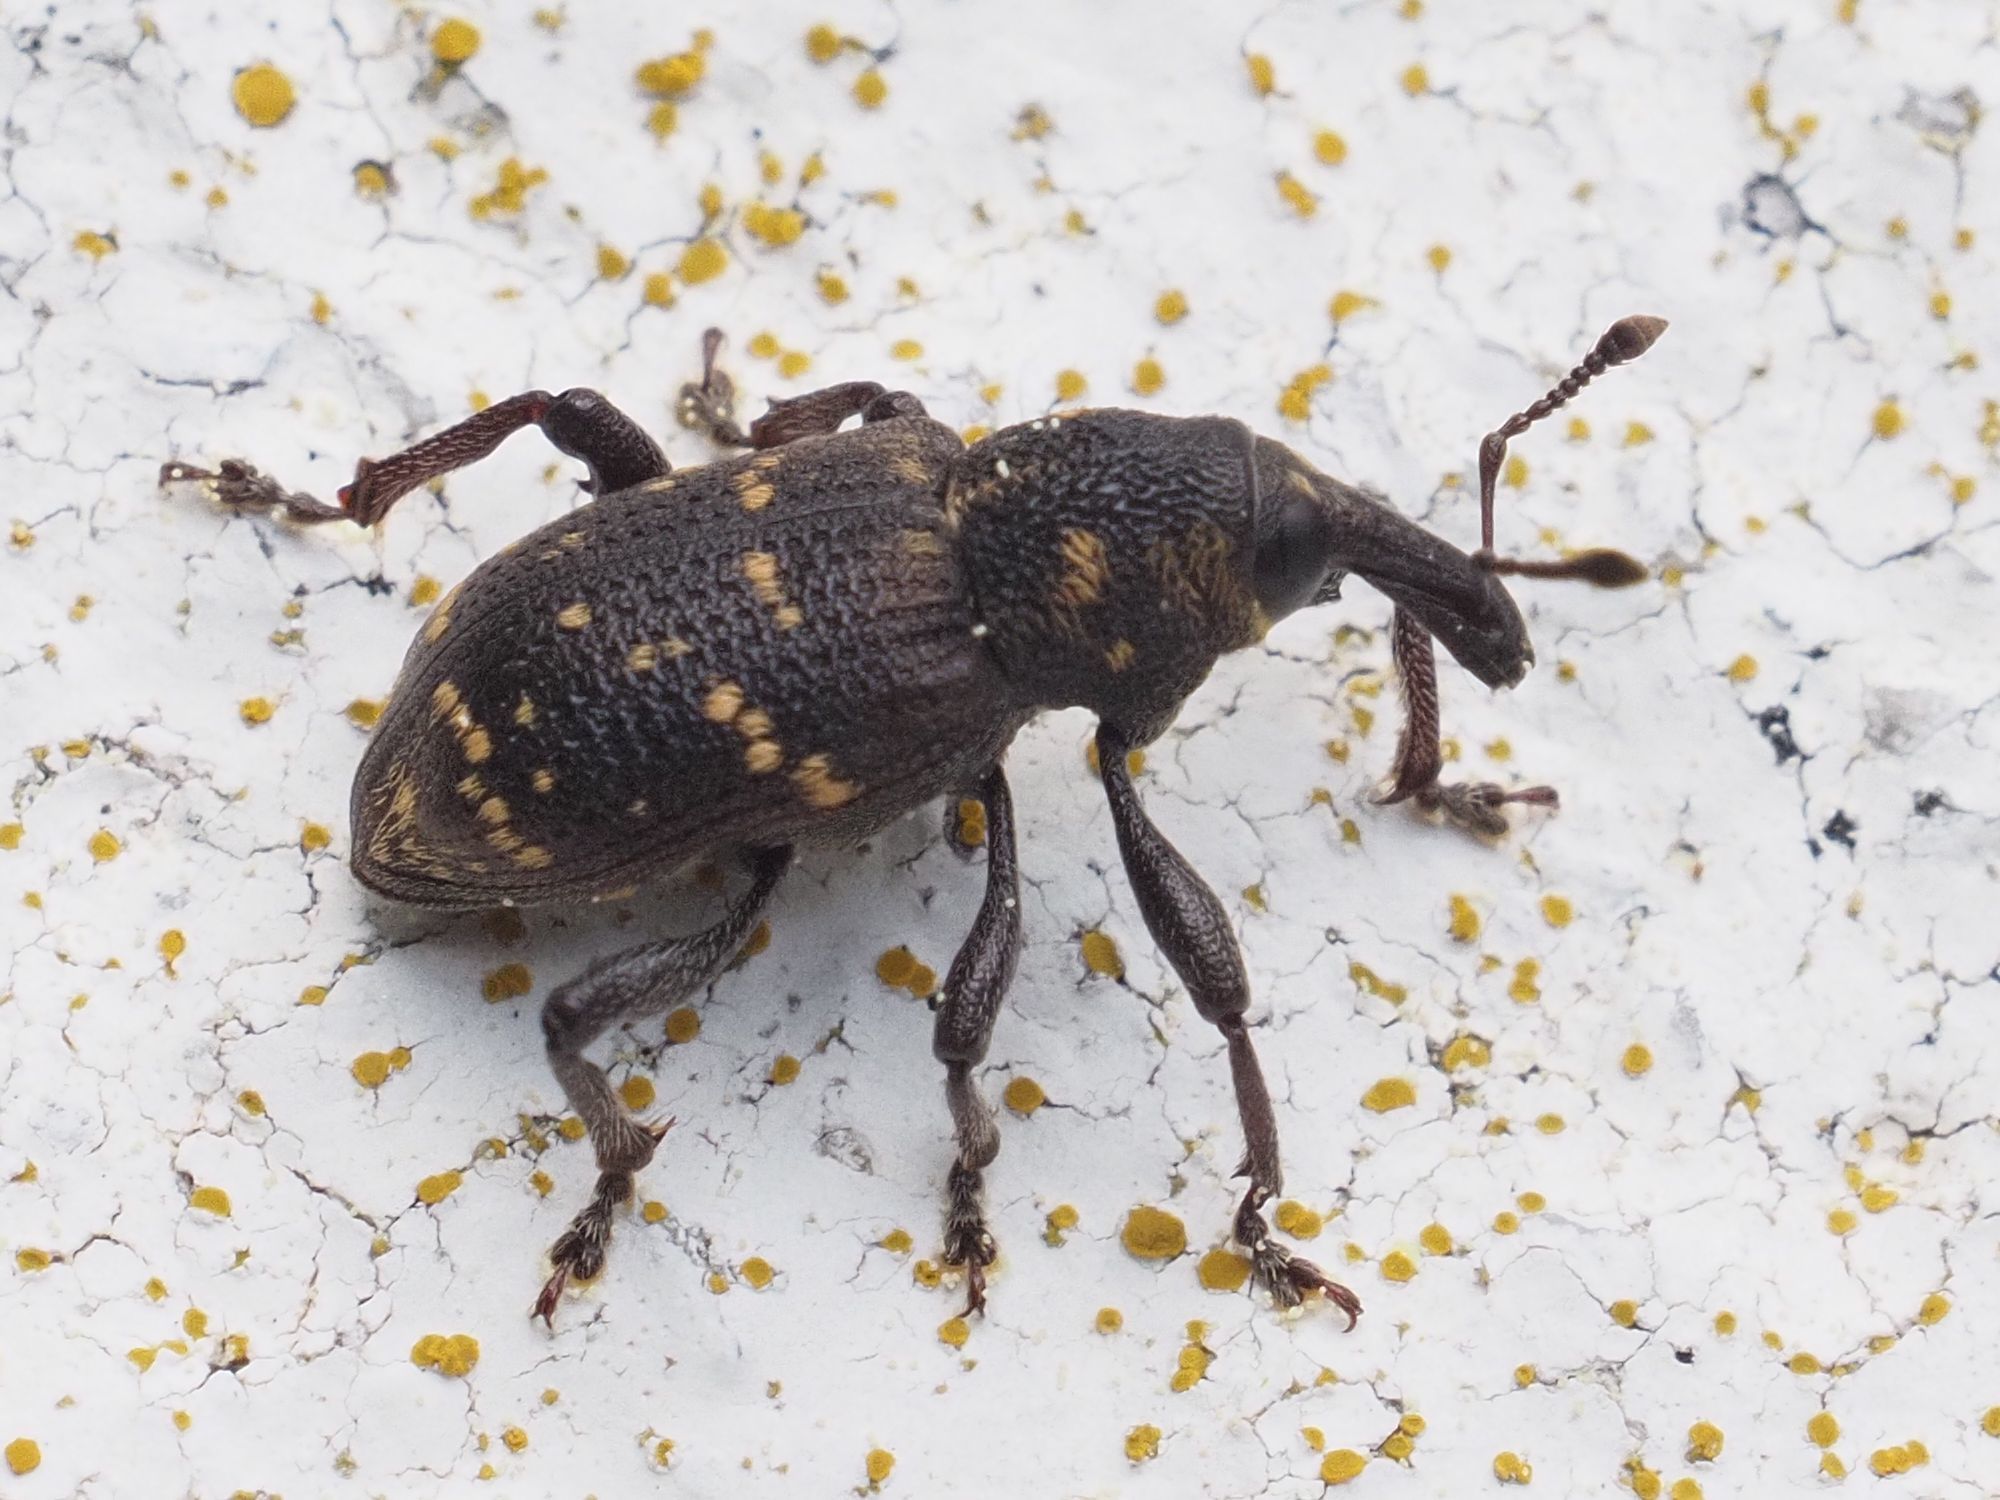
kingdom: Animalia
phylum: Arthropoda
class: Insecta
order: Coleoptera
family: Curculionidae
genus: Hylobius
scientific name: Hylobius abietis
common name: Large pine weevil
